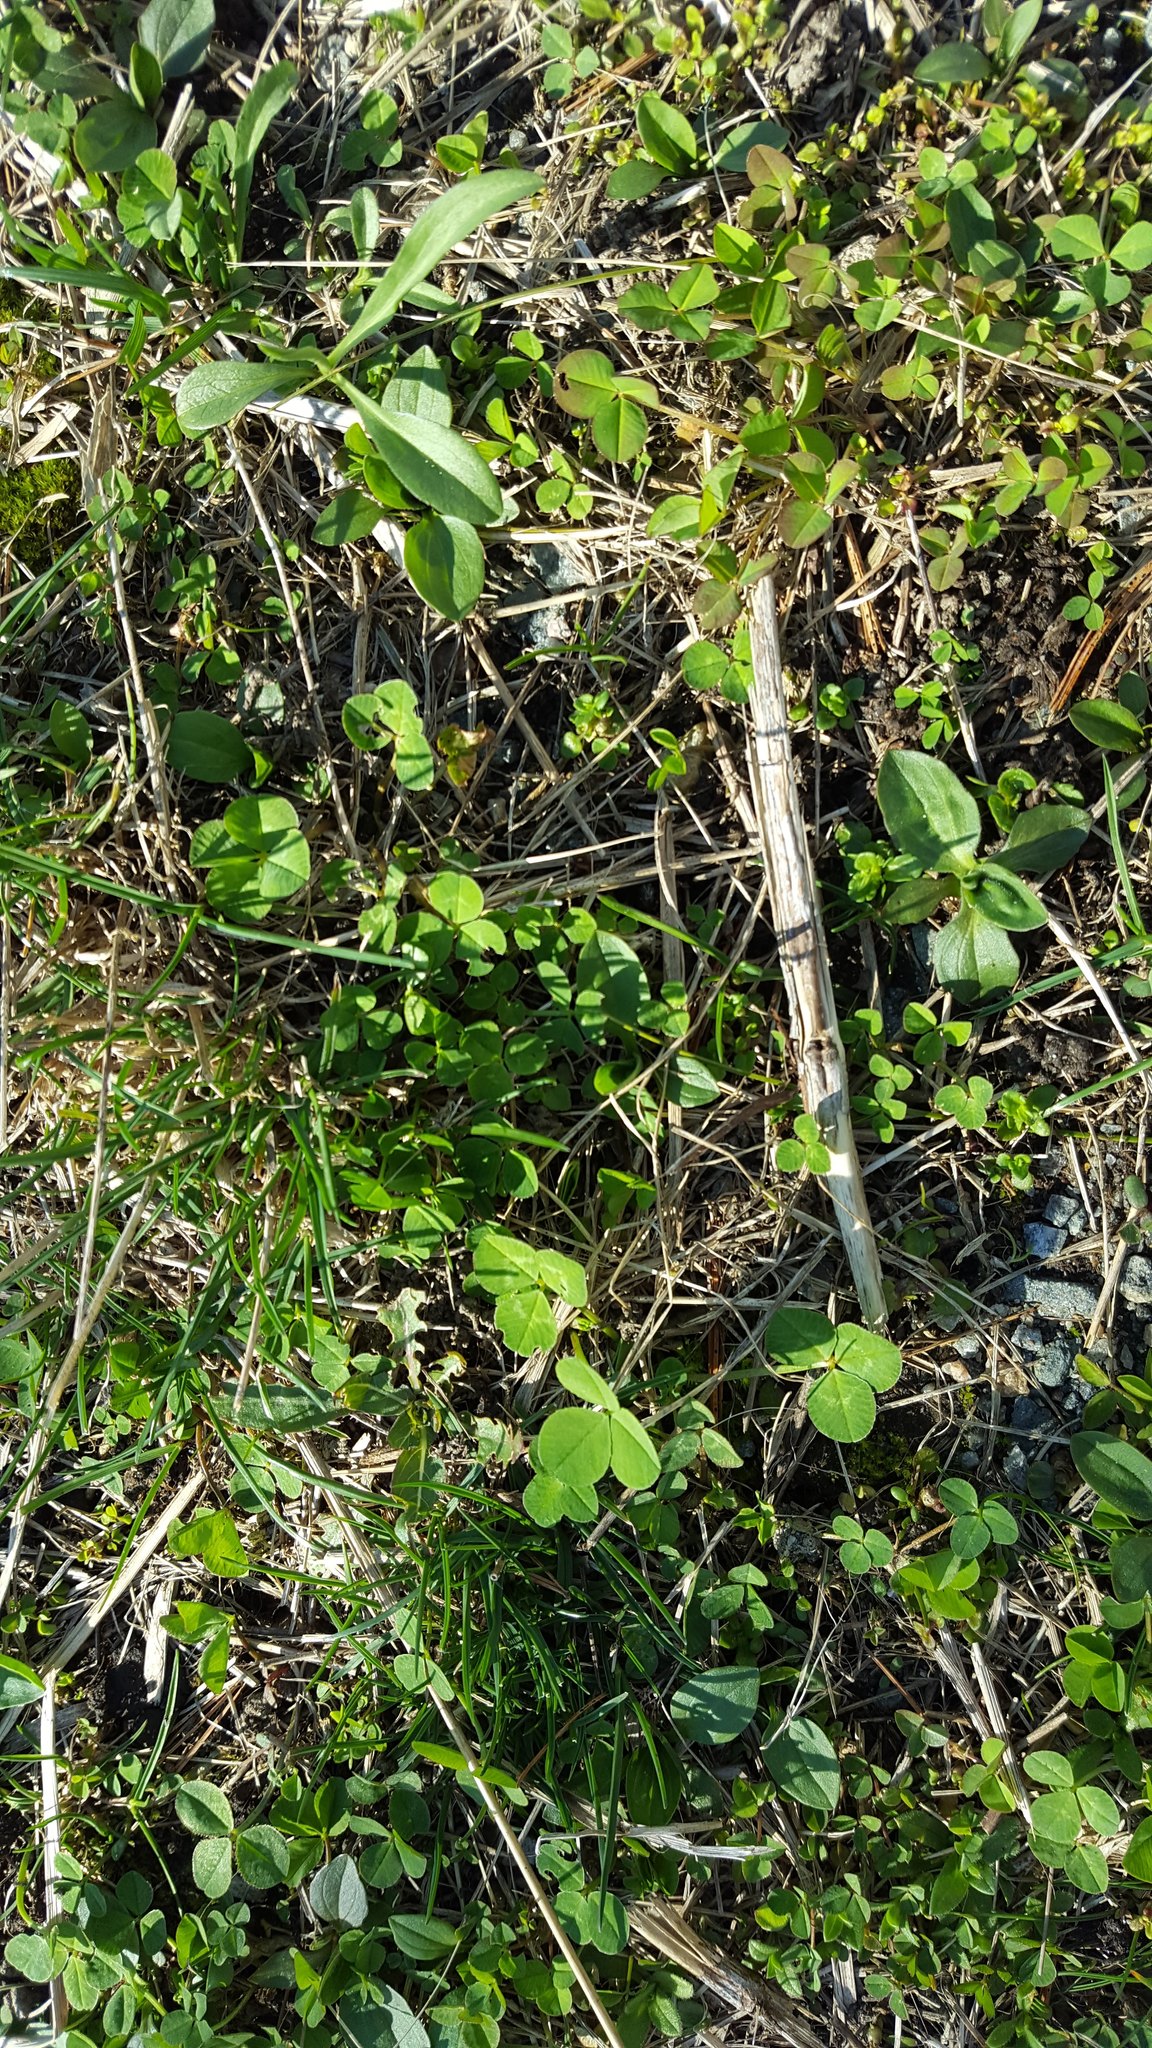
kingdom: Plantae
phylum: Tracheophyta
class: Magnoliopsida
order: Fabales
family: Fabaceae
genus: Trifolium
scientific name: Trifolium repens
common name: White clover
